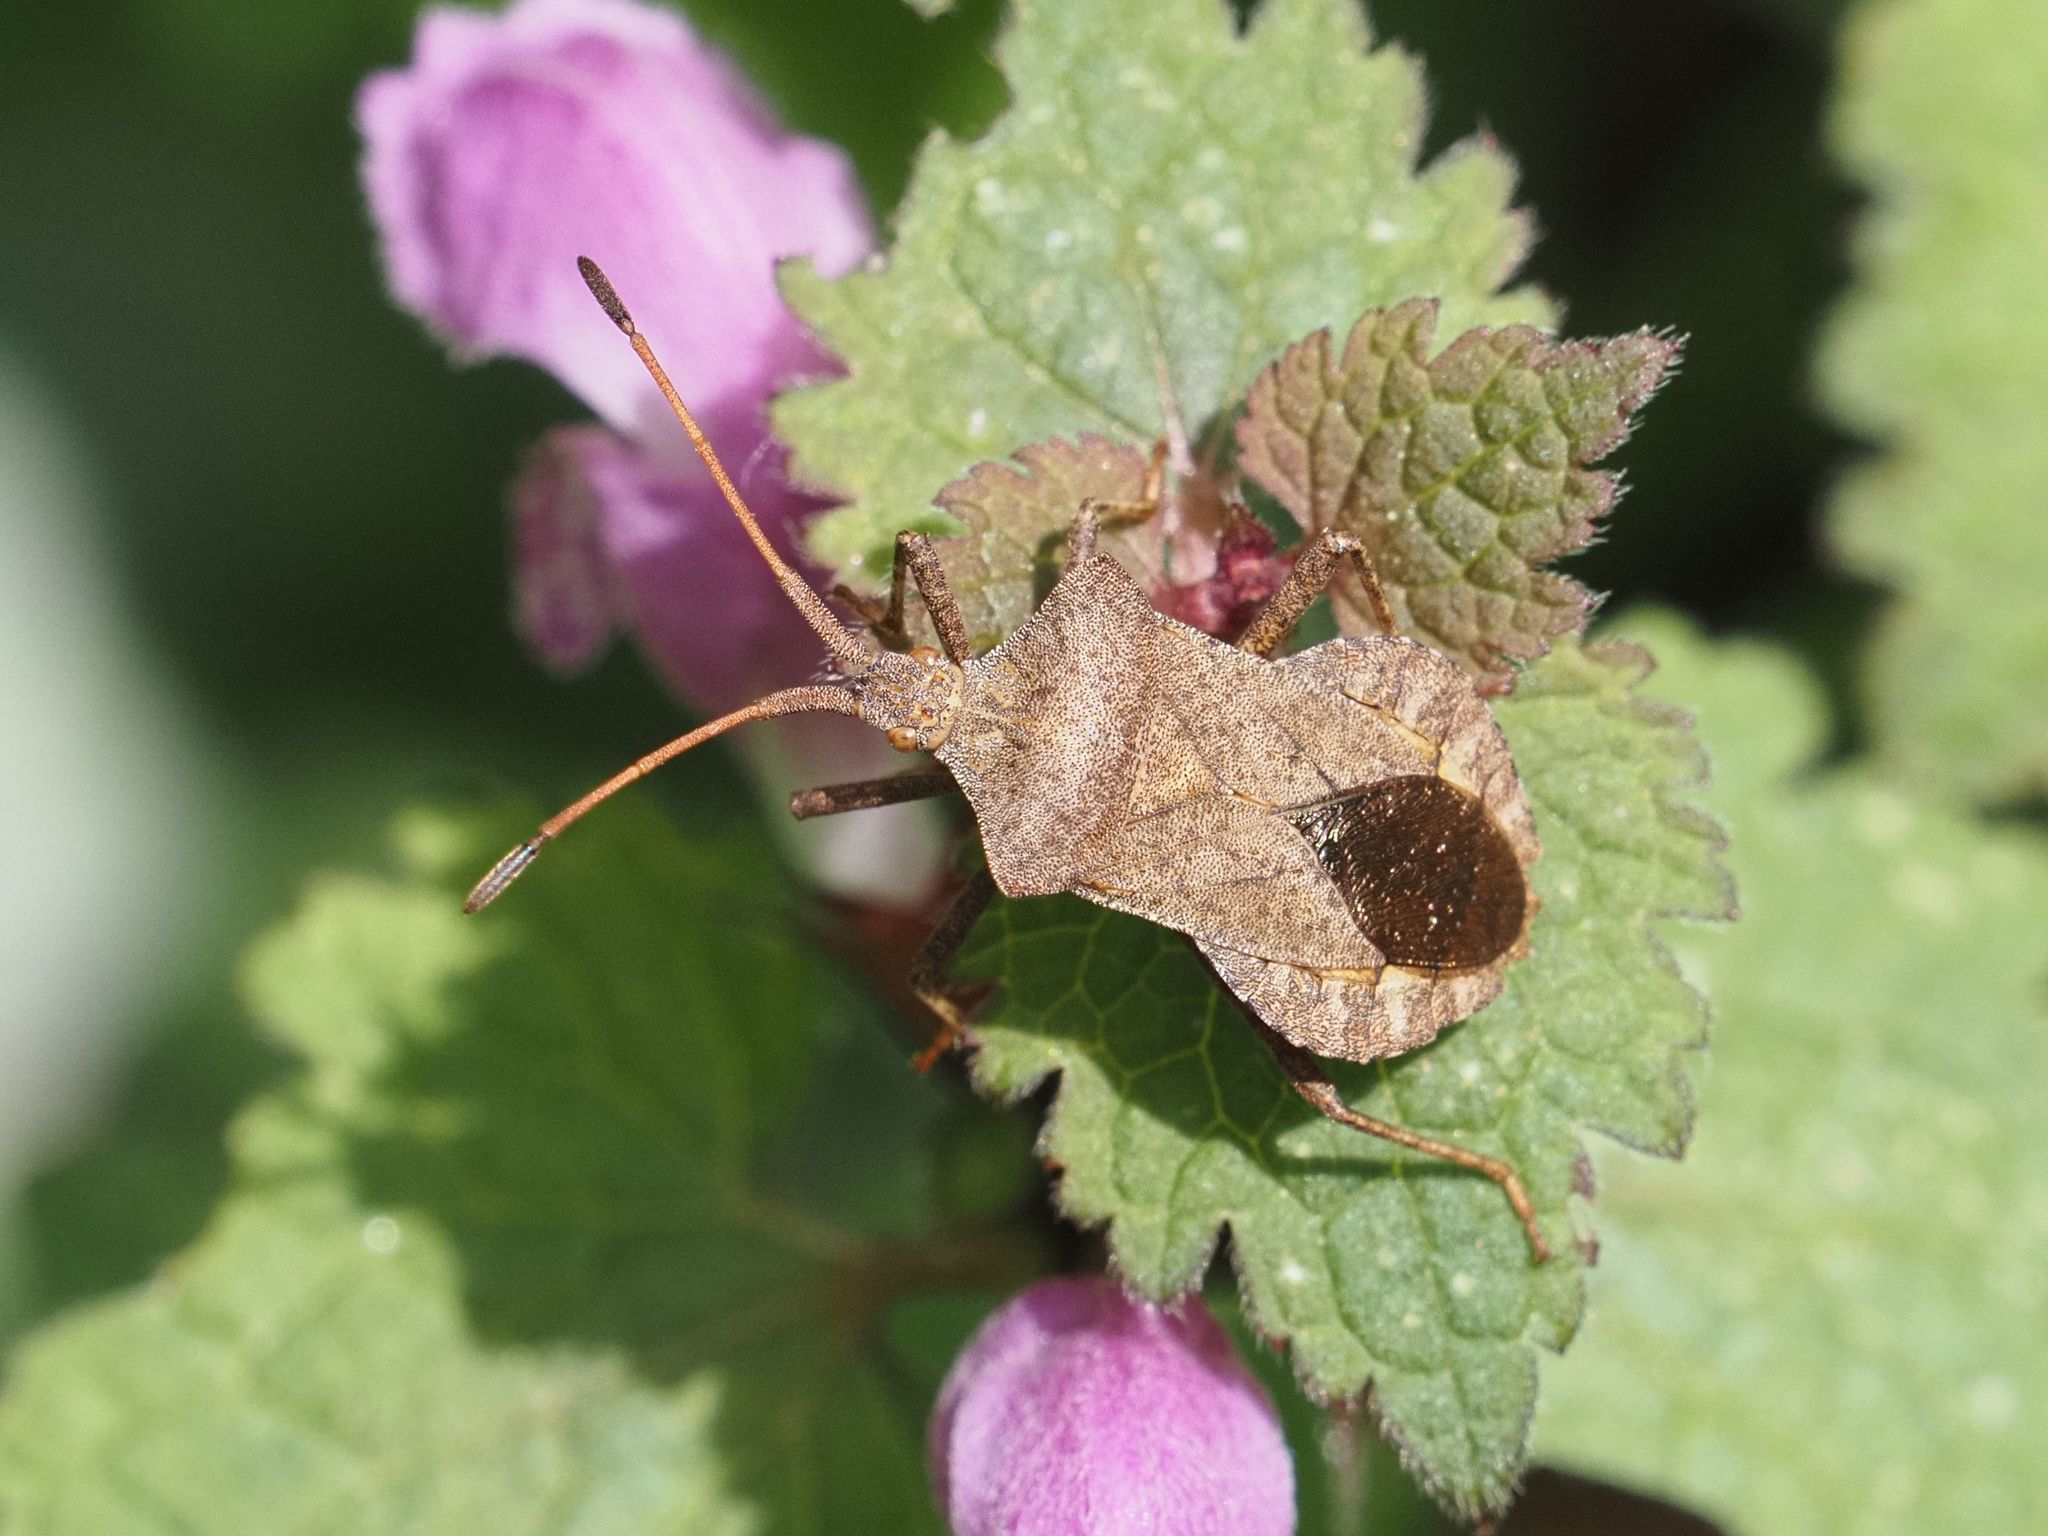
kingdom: Animalia
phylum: Arthropoda
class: Insecta
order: Hemiptera
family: Coreidae
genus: Coreus
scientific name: Coreus marginatus
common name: Dock bug
